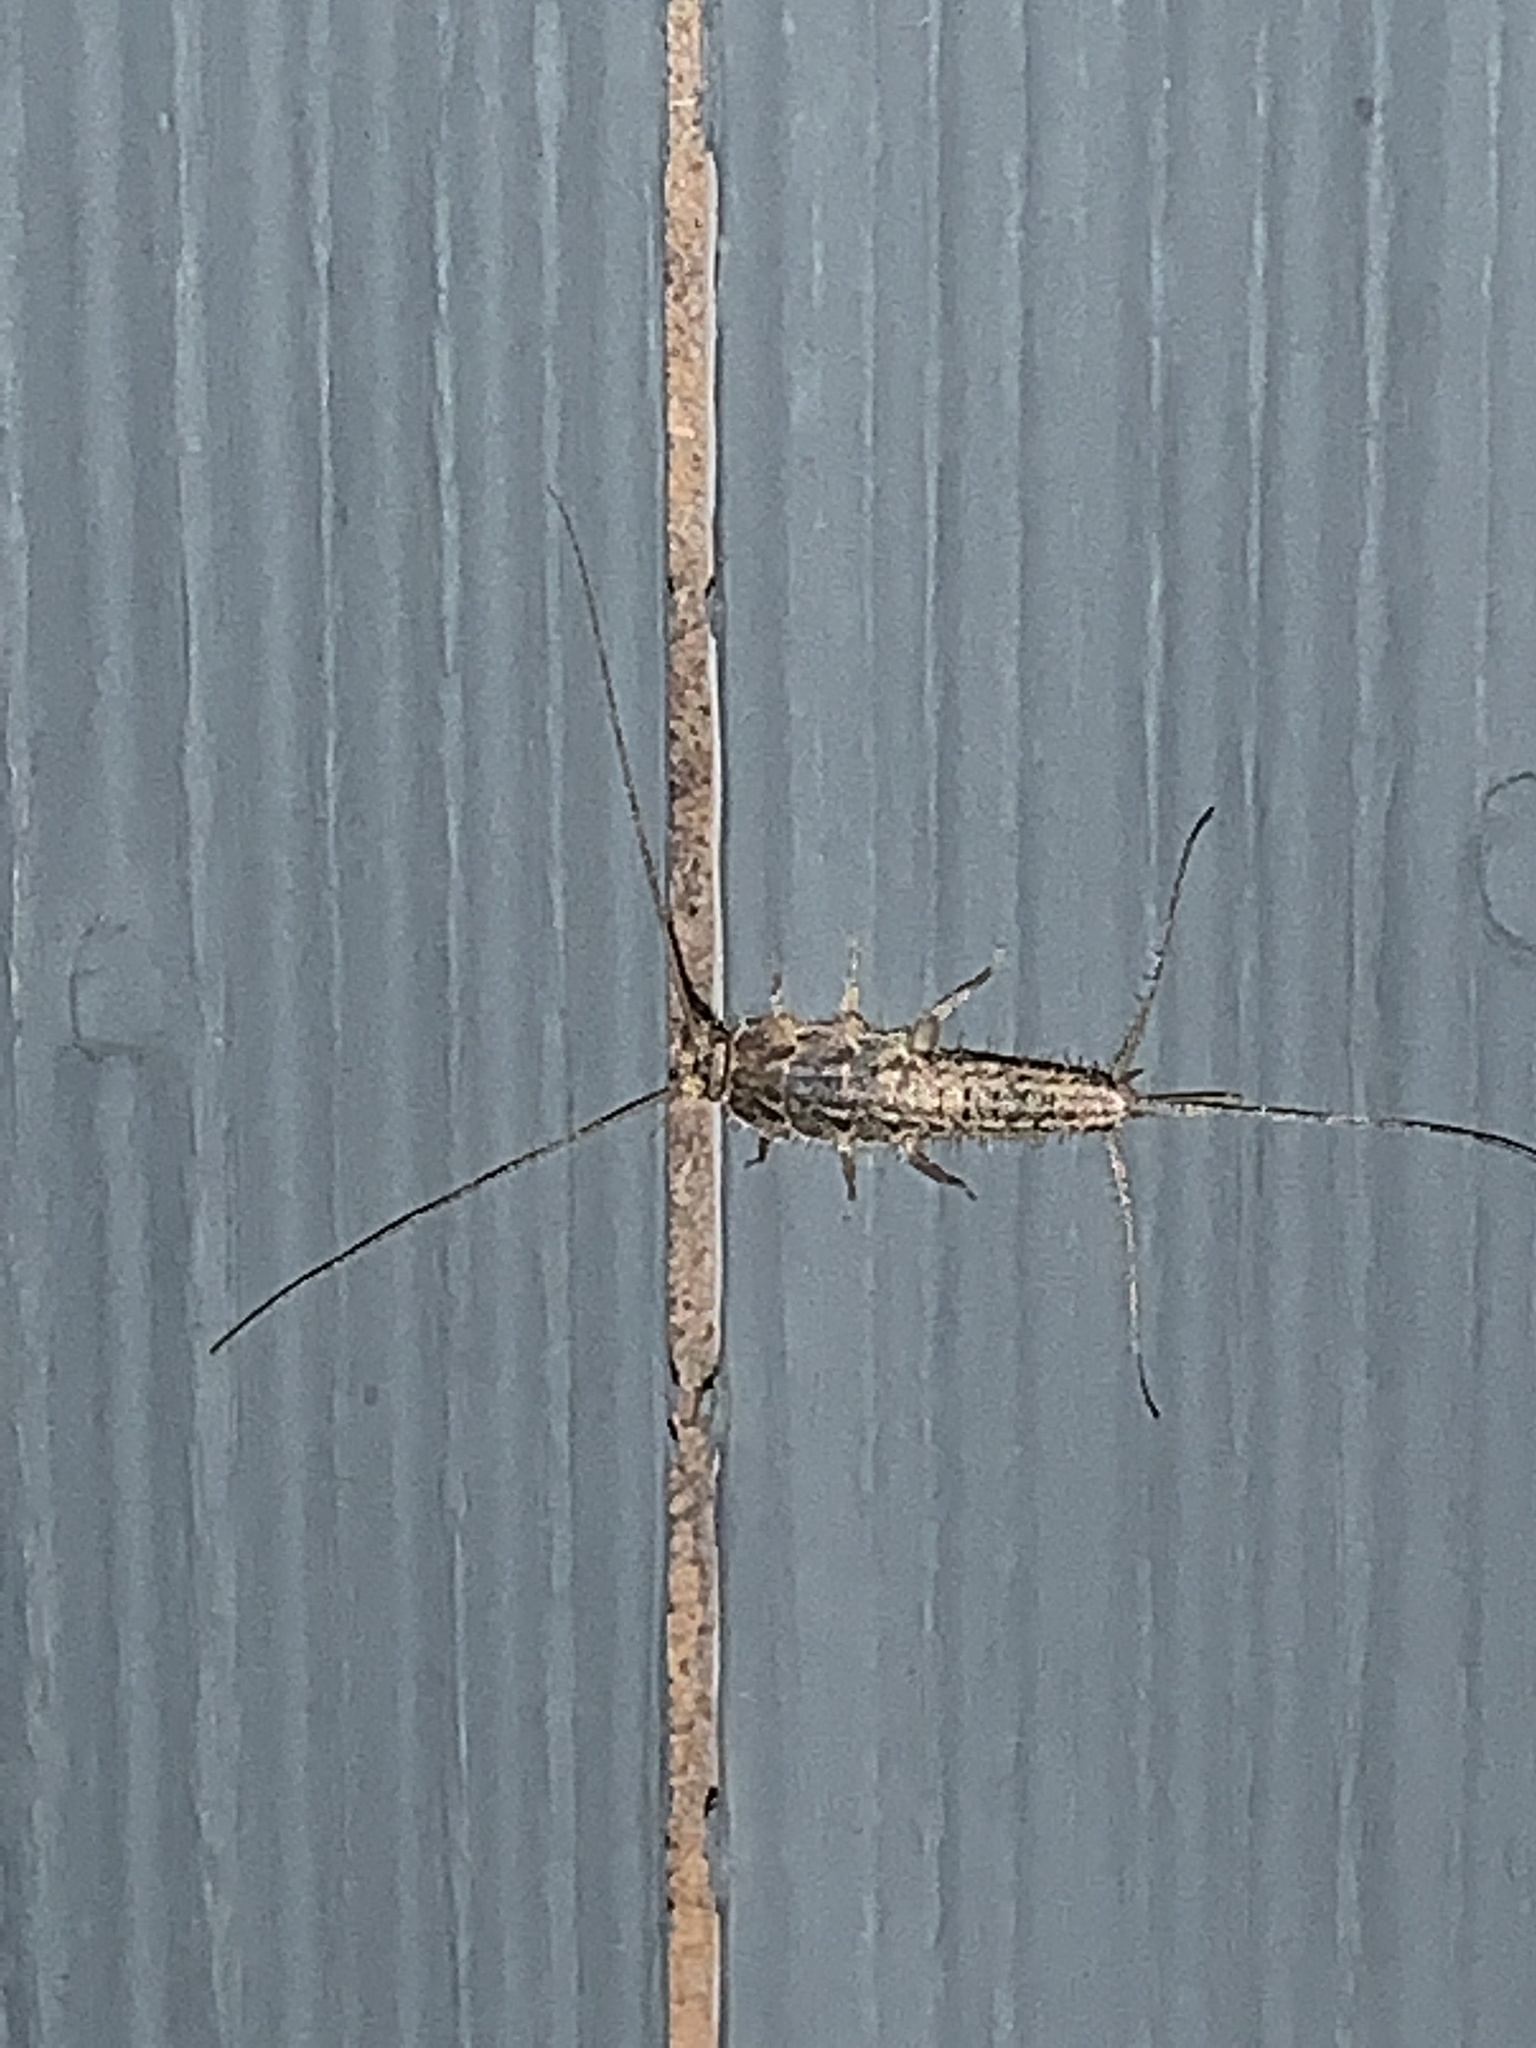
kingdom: Animalia
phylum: Arthropoda
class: Insecta
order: Zygentoma
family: Lepismatidae
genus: Ctenolepisma
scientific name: Ctenolepisma lineata
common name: Four-lined silverfish
